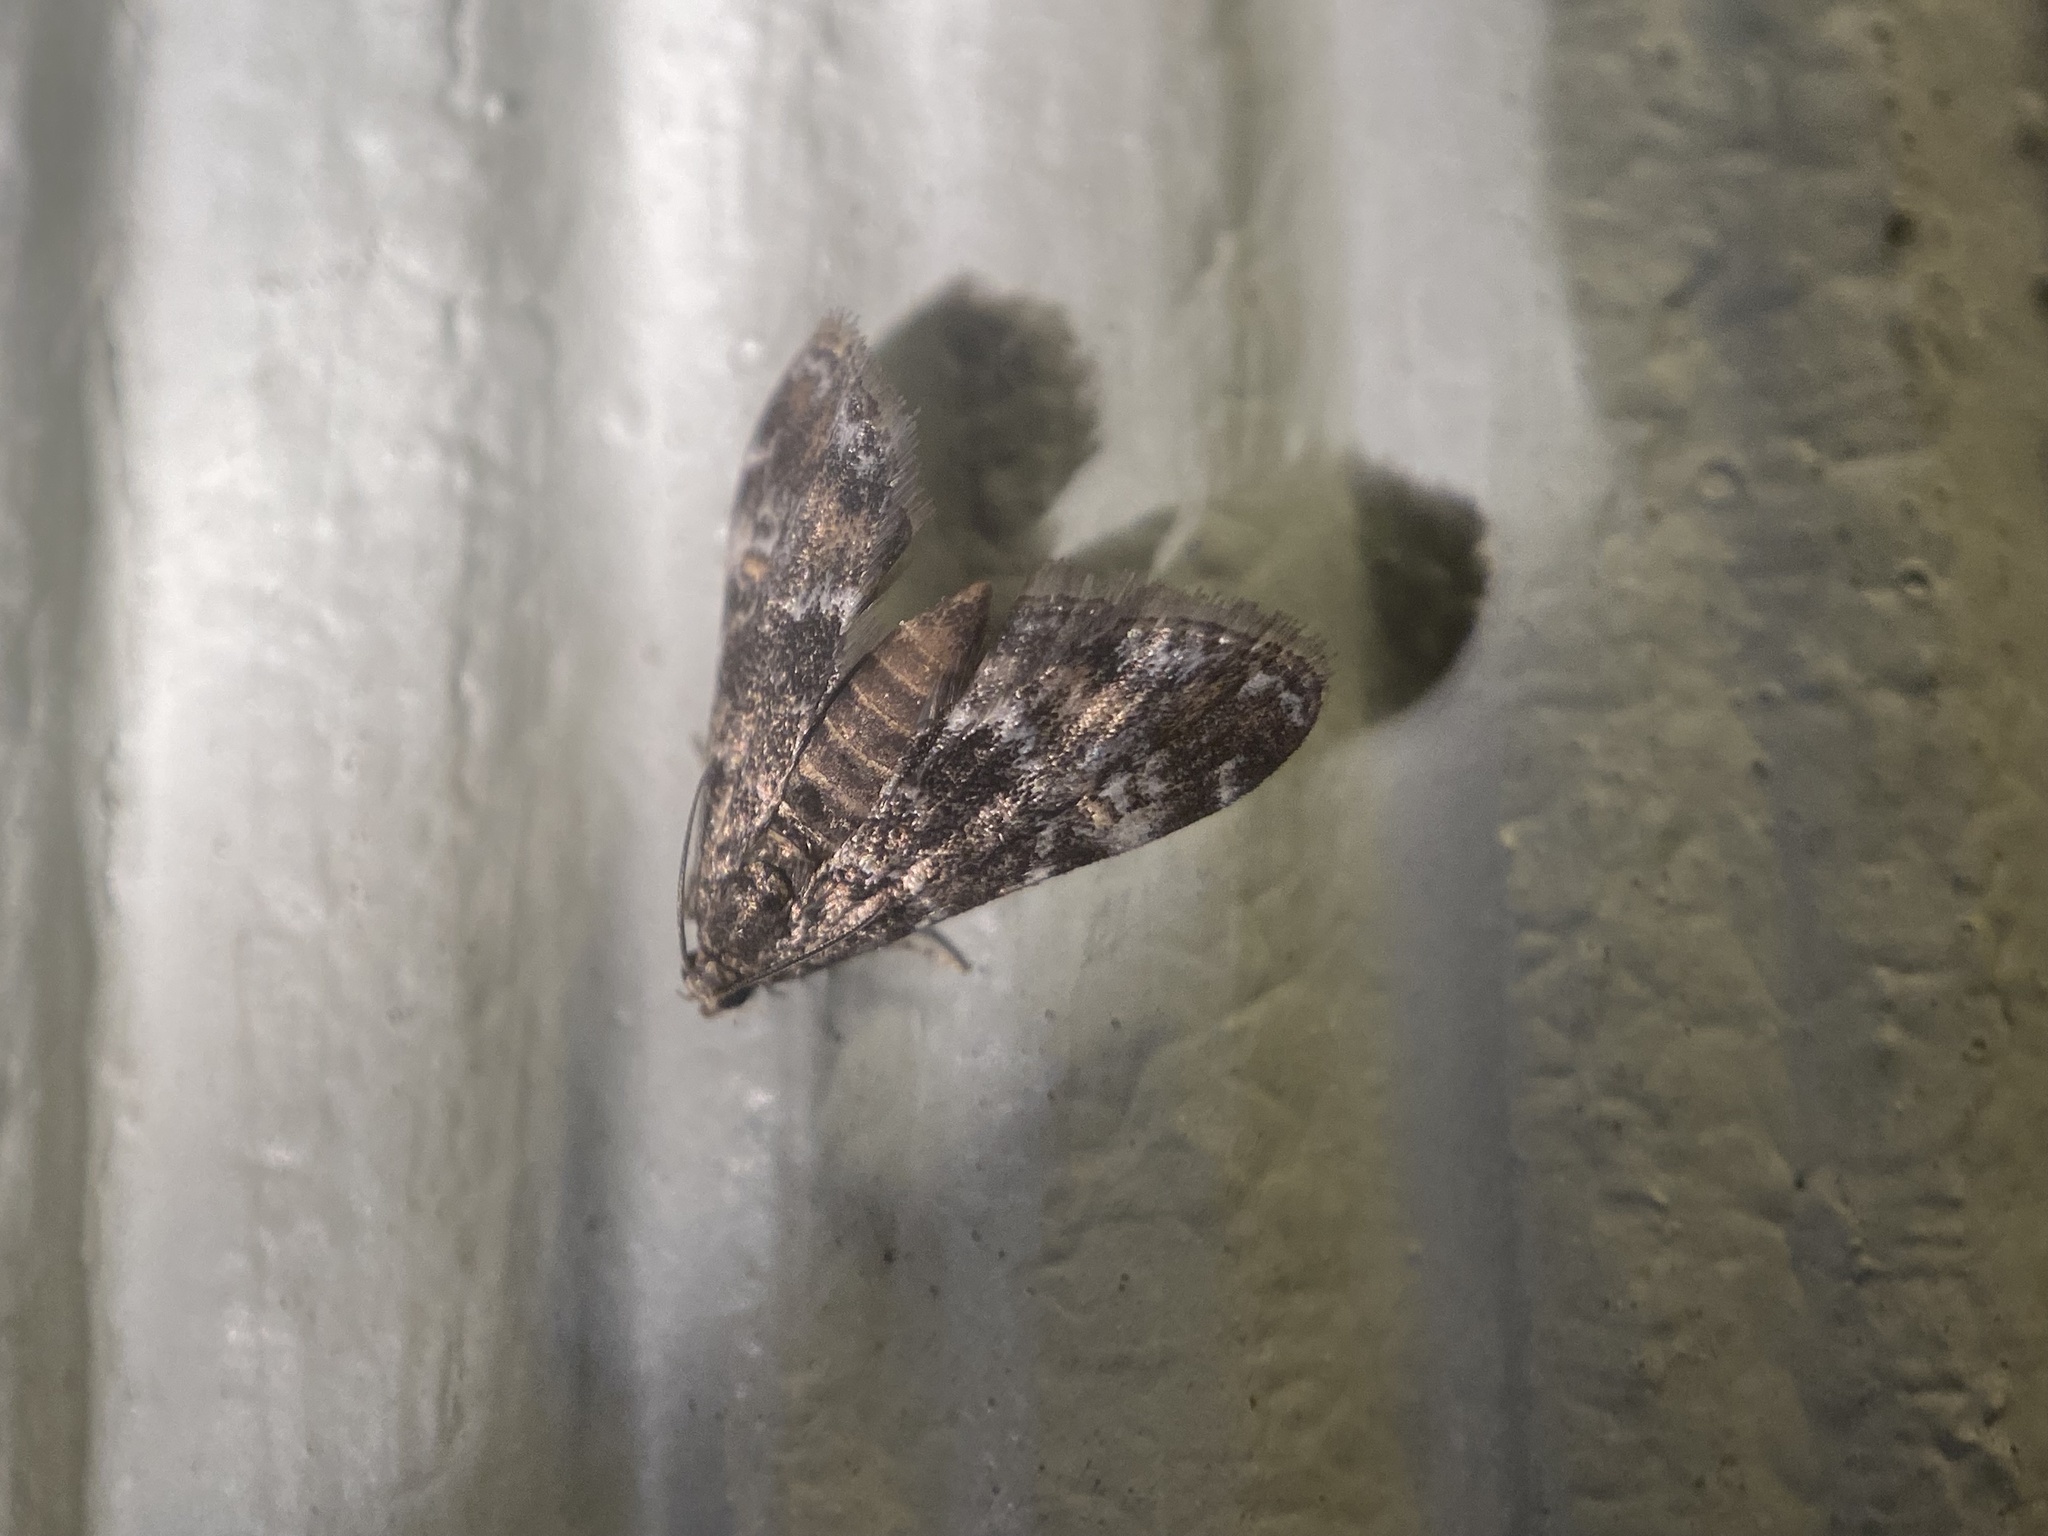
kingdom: Animalia
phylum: Arthropoda
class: Insecta
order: Lepidoptera
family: Crambidae
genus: Elophila
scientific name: Elophila obliteralis
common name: Waterlily leafcutter moth
